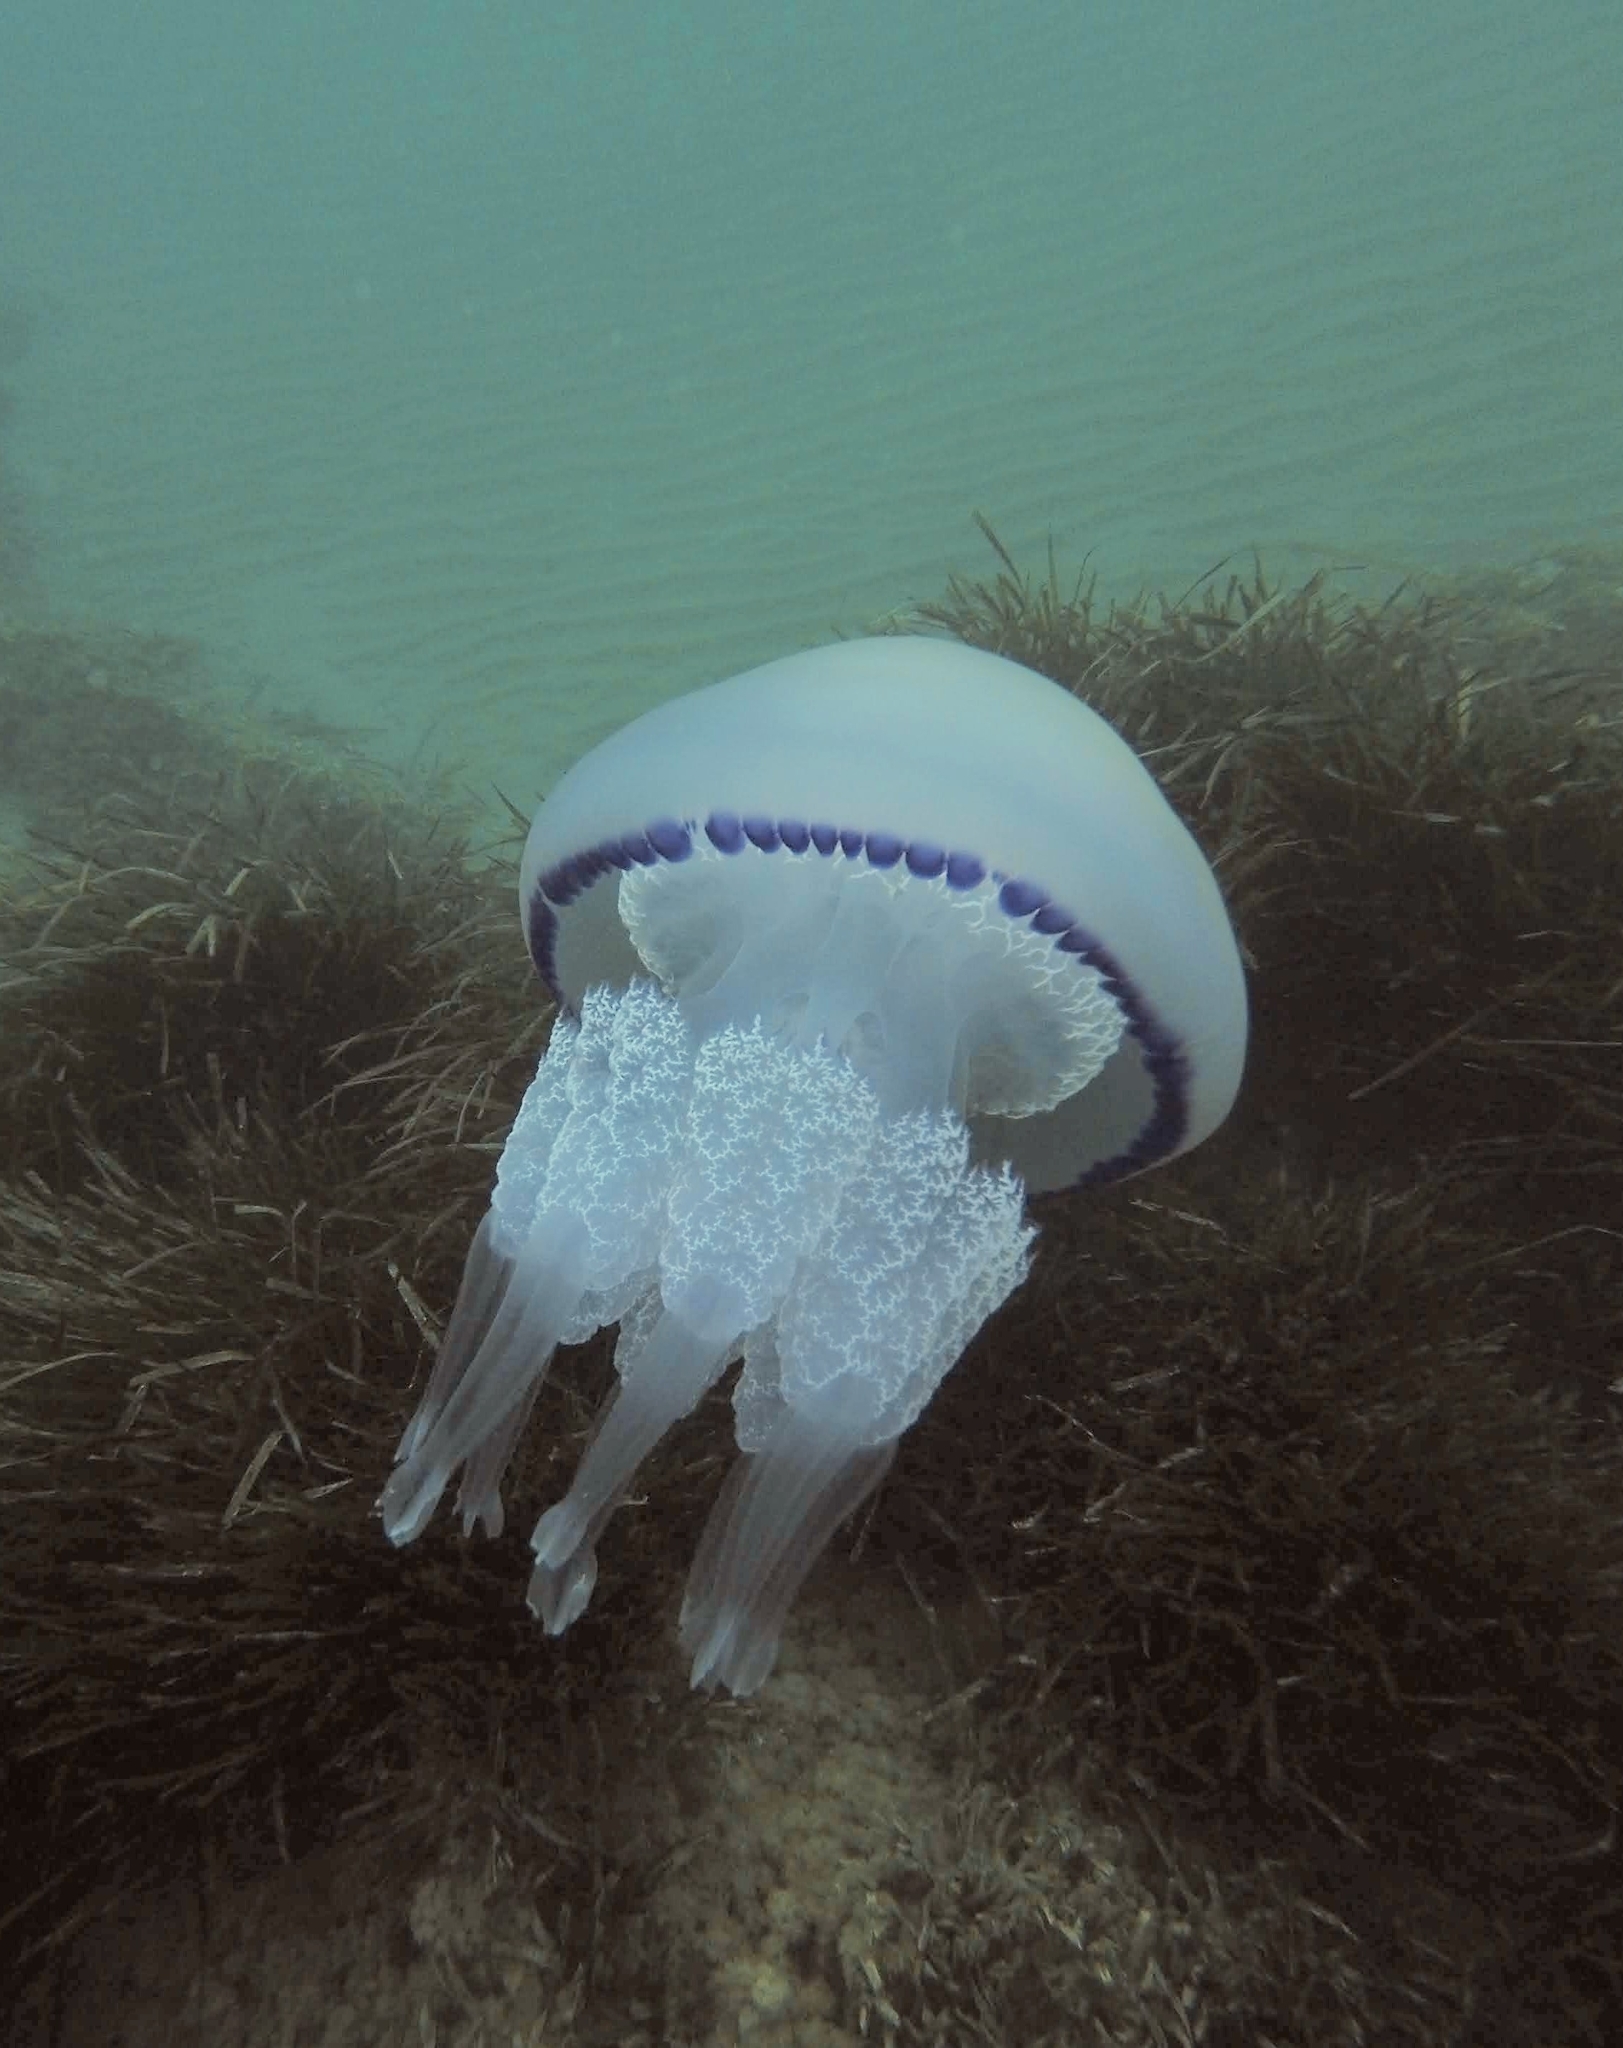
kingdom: Animalia
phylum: Cnidaria
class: Scyphozoa
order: Rhizostomeae
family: Rhizostomatidae
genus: Rhizostoma
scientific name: Rhizostoma pulmo
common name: Barrel jellyfish
